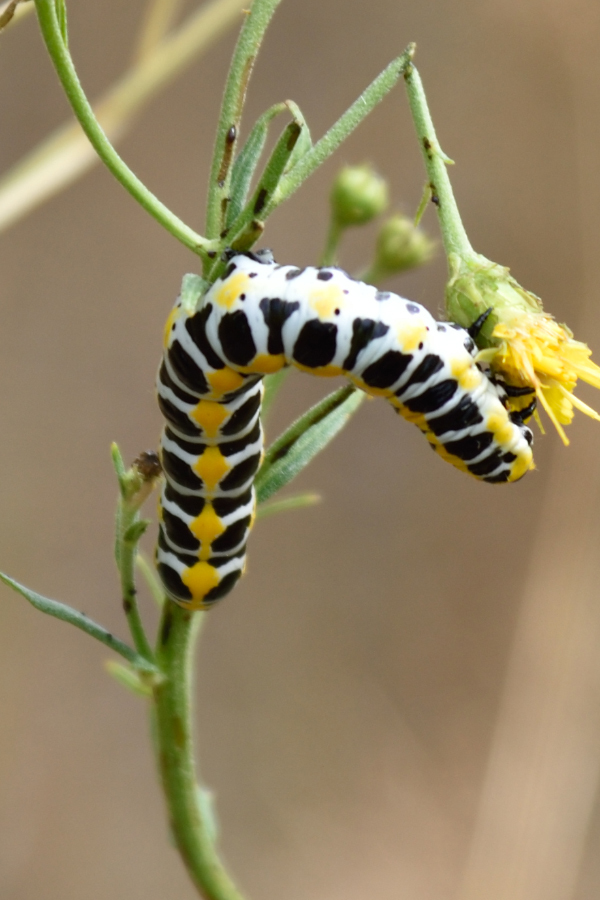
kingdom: Animalia
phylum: Arthropoda
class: Insecta
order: Lepidoptera
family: Noctuidae
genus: Cucullia
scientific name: Cucullia pustulata
